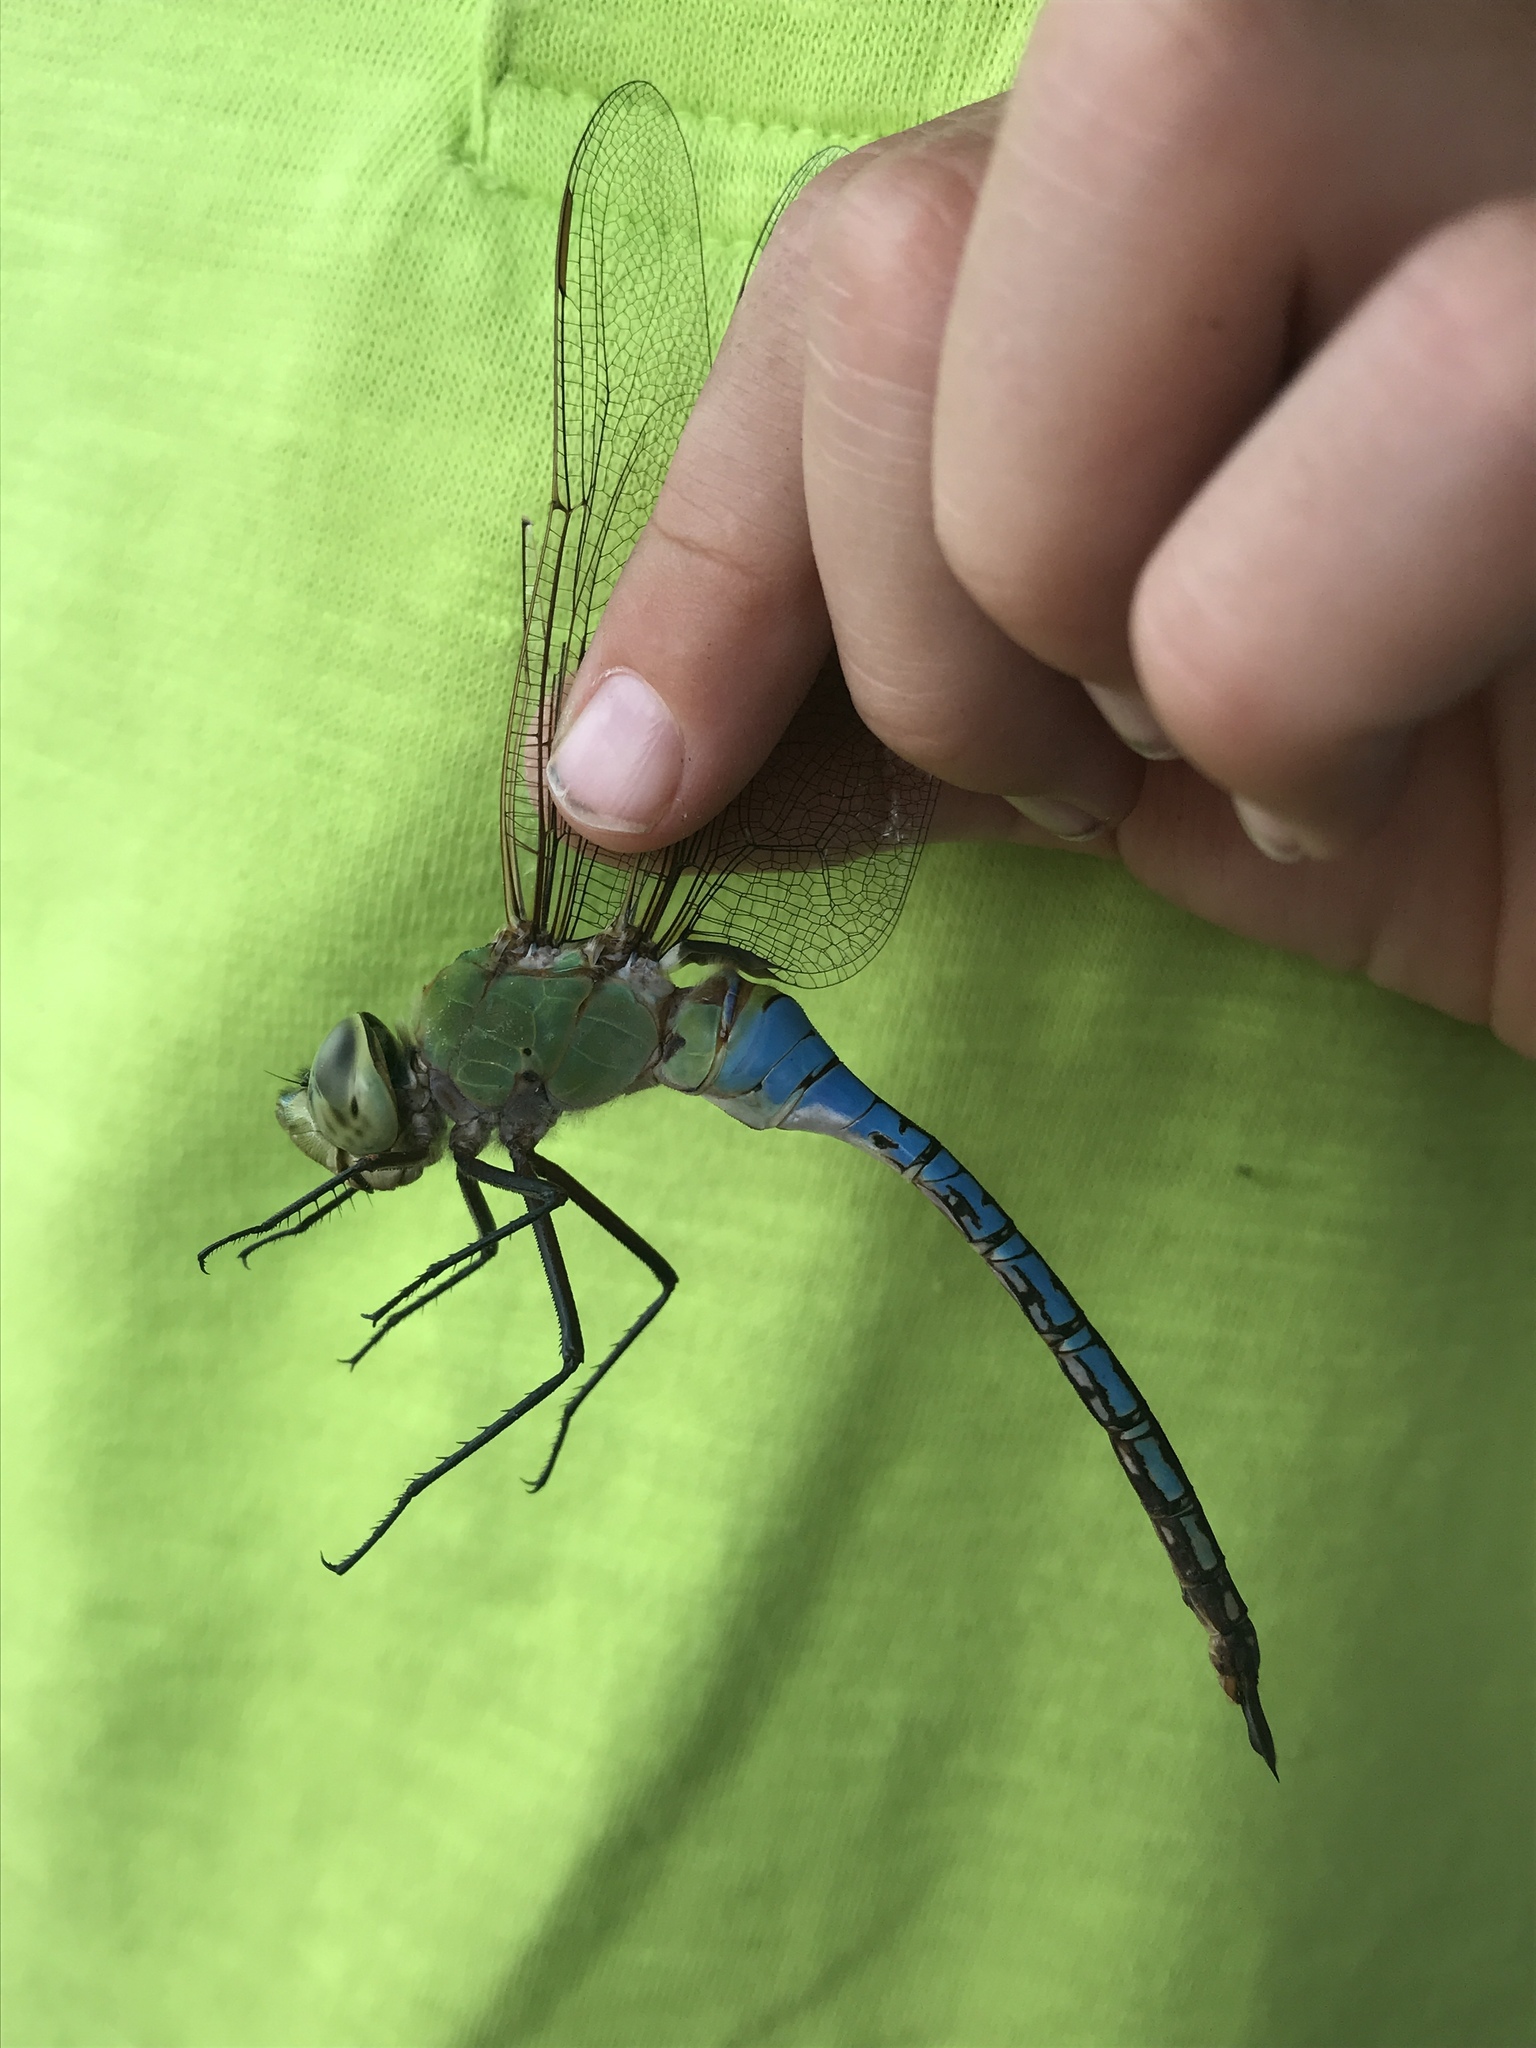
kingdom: Animalia
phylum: Arthropoda
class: Insecta
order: Odonata
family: Aeshnidae
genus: Anax
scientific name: Anax junius
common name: Common green darner
